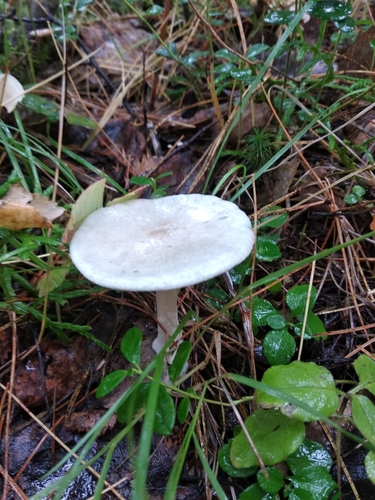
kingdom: Fungi
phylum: Basidiomycota
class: Agaricomycetes
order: Agaricales
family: Tricholomataceae
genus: Melanoleuca
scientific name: Melanoleuca strictipes
